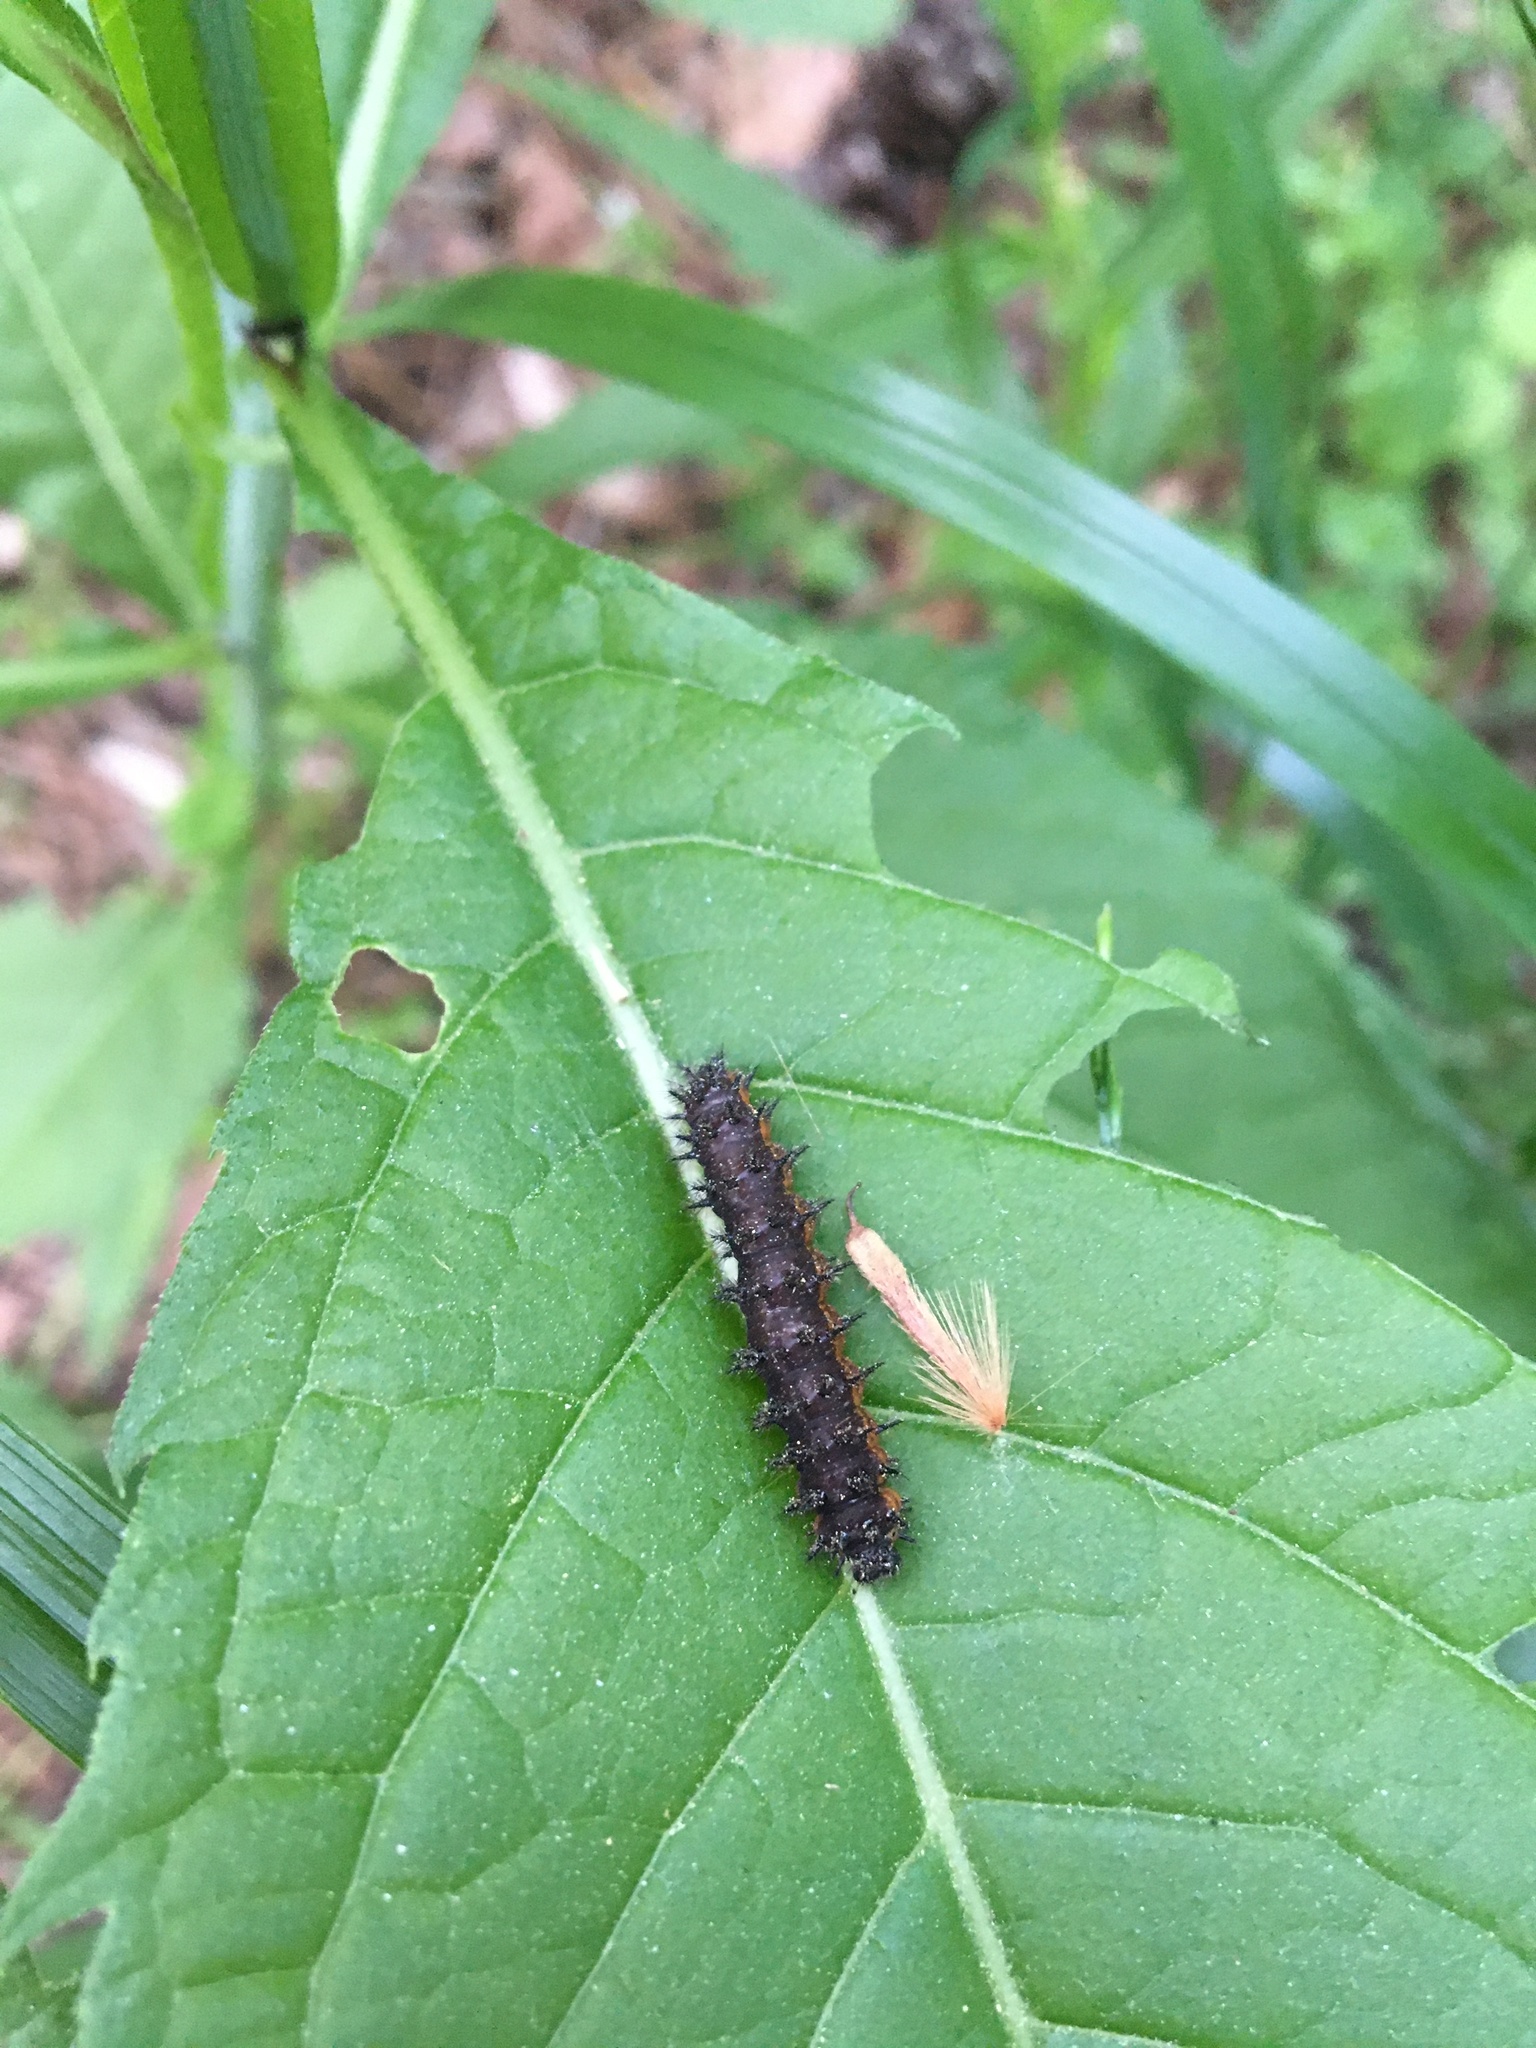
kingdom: Animalia
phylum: Arthropoda
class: Insecta
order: Lepidoptera
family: Nymphalidae
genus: Chlosyne
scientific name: Chlosyne nycteis
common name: Silvery checkerspot
